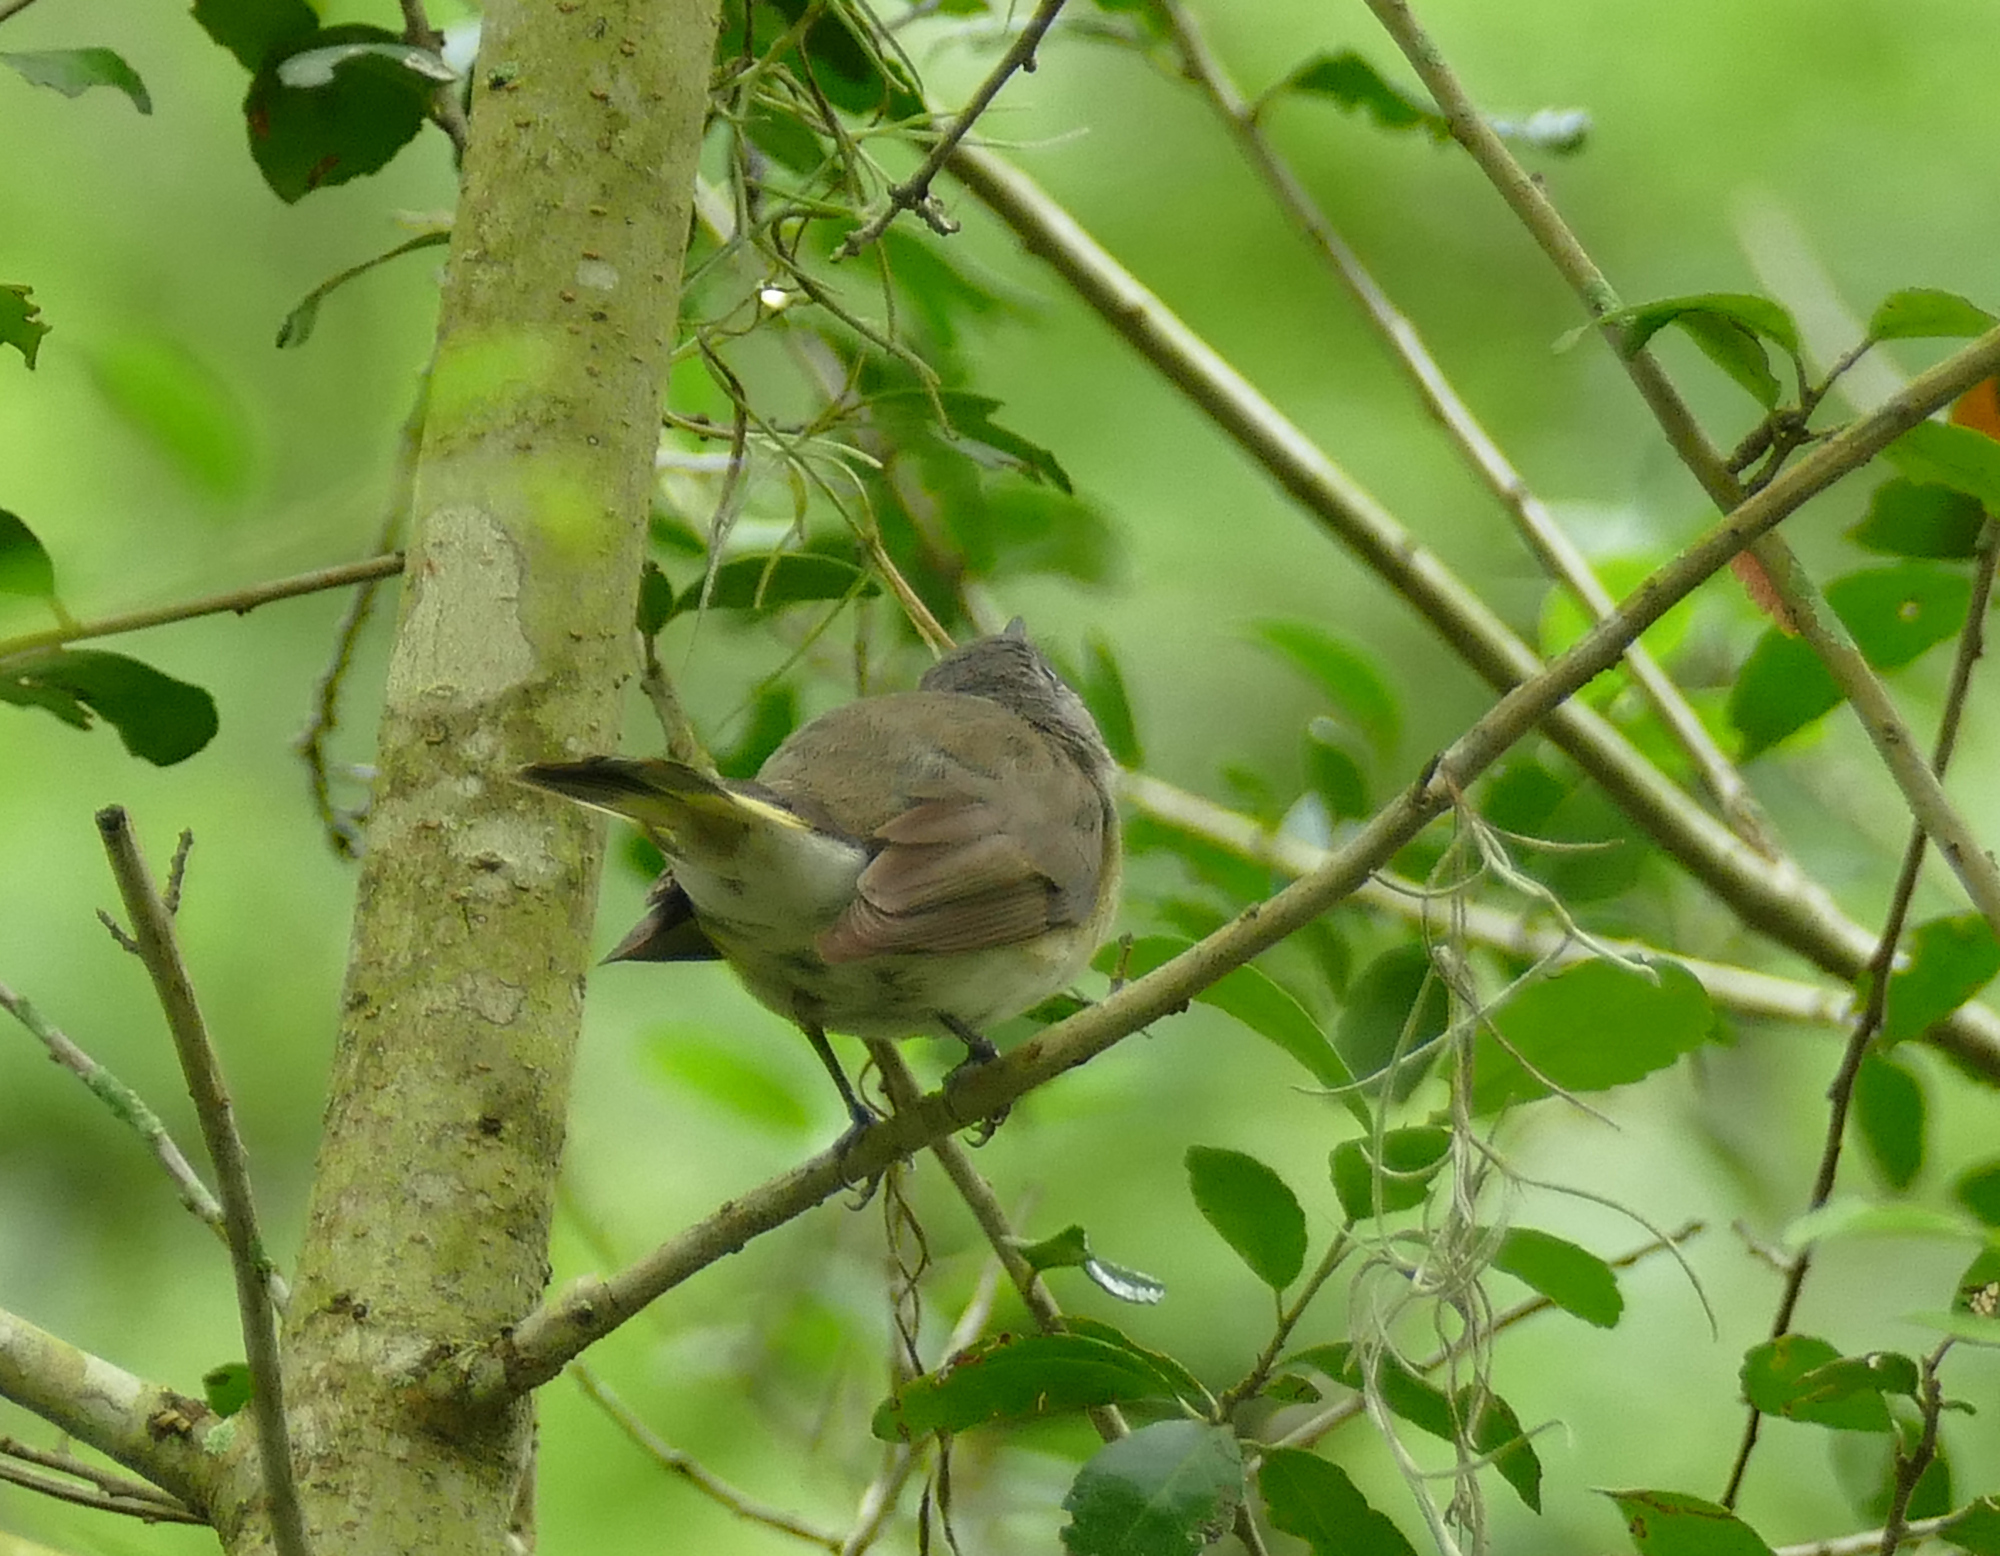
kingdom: Animalia
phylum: Chordata
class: Aves
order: Passeriformes
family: Parulidae
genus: Setophaga
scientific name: Setophaga ruticilla
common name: American redstart
